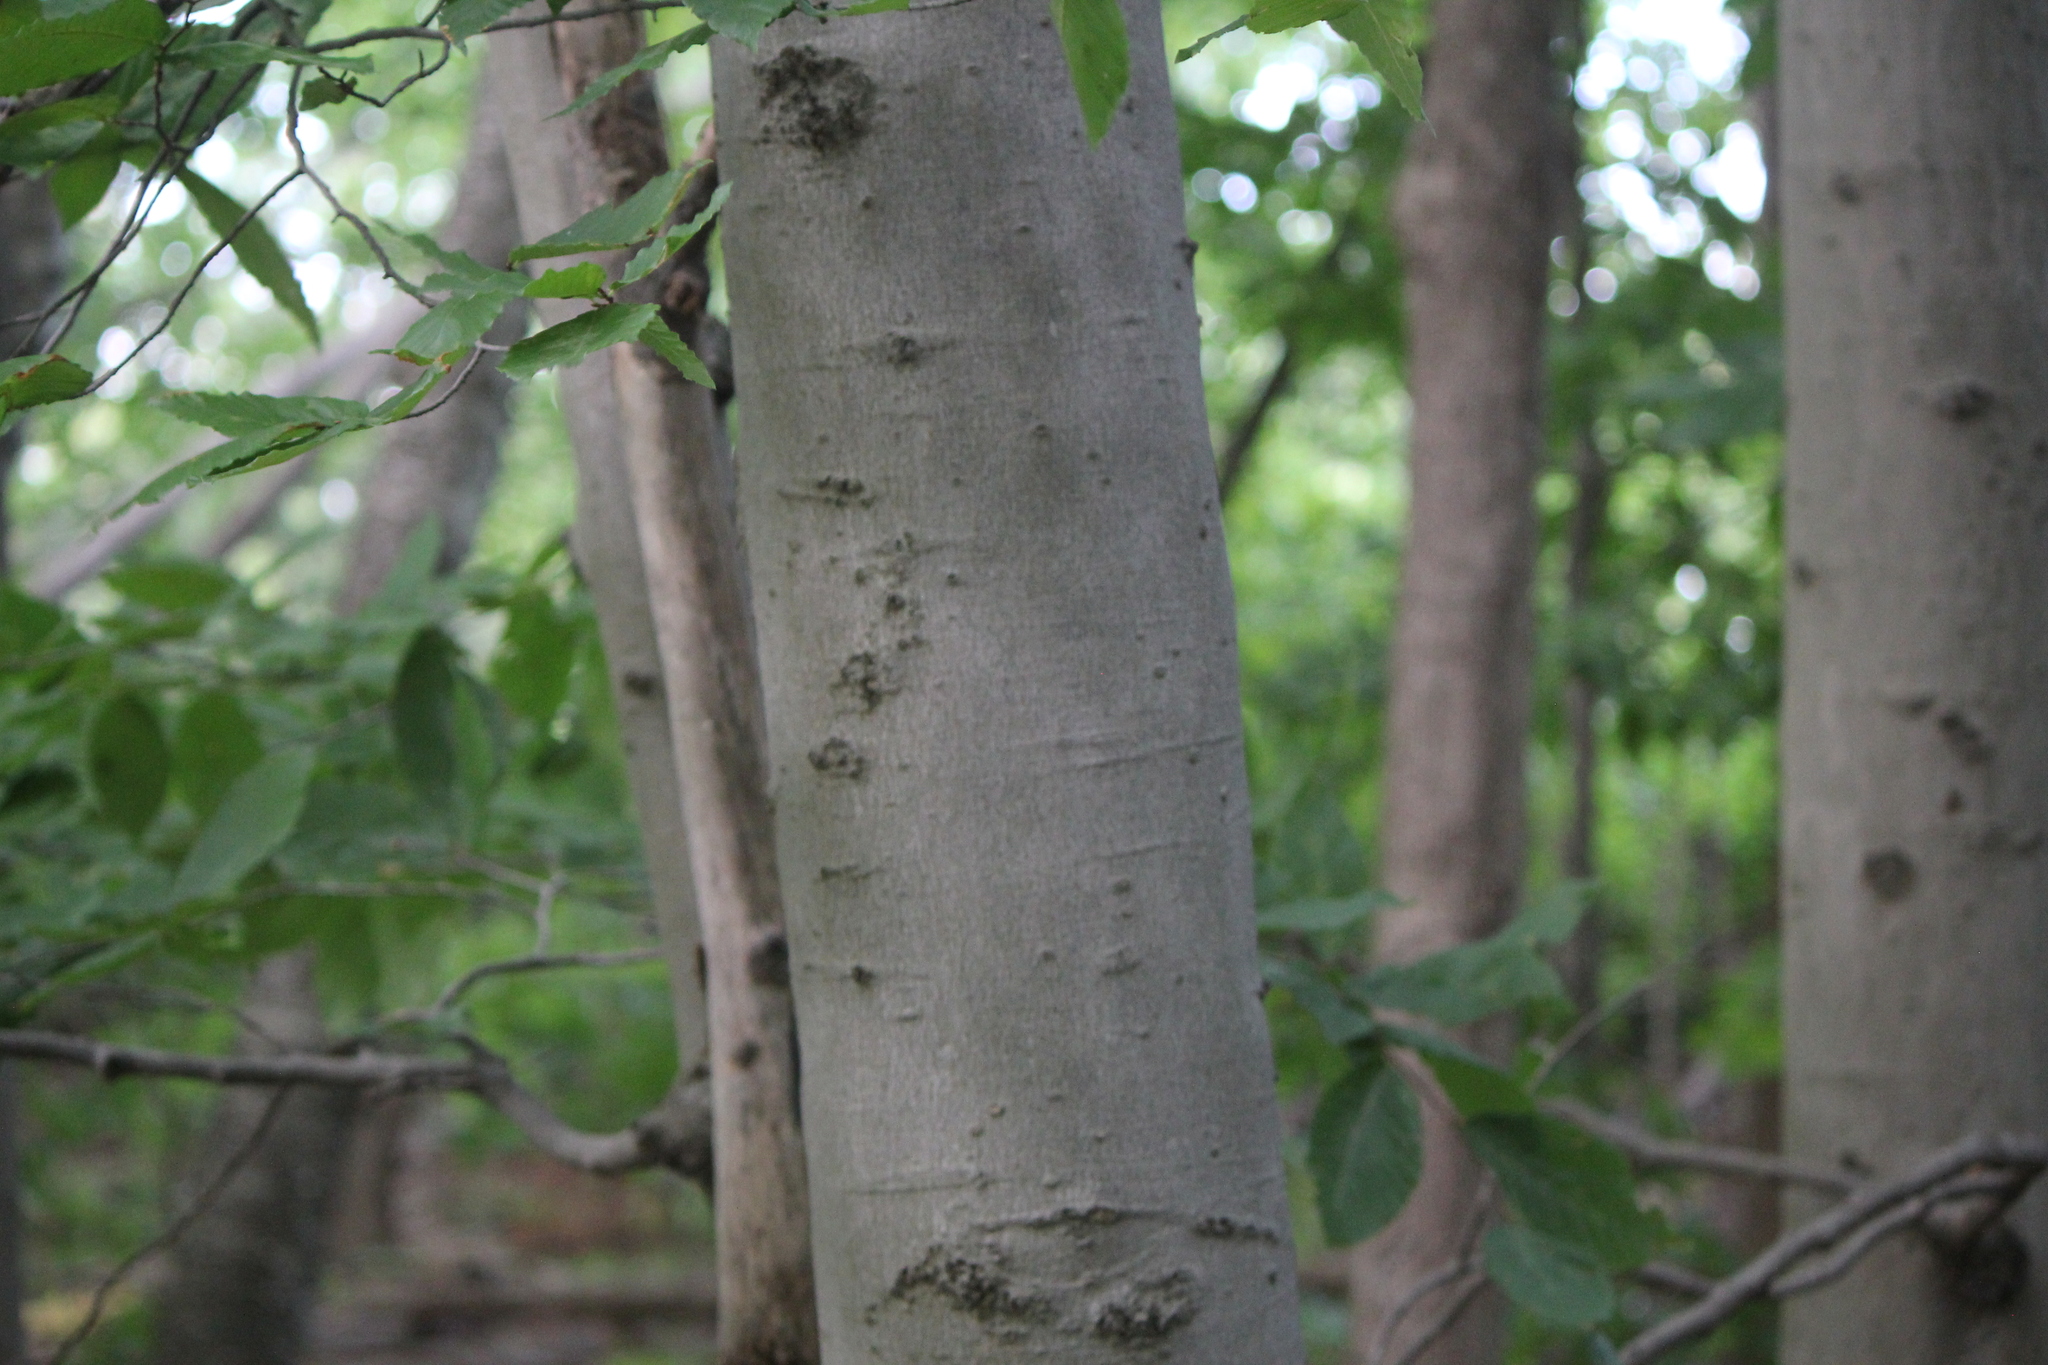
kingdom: Plantae
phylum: Tracheophyta
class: Magnoliopsida
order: Fagales
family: Fagaceae
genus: Fagus
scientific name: Fagus grandifolia
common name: American beech
